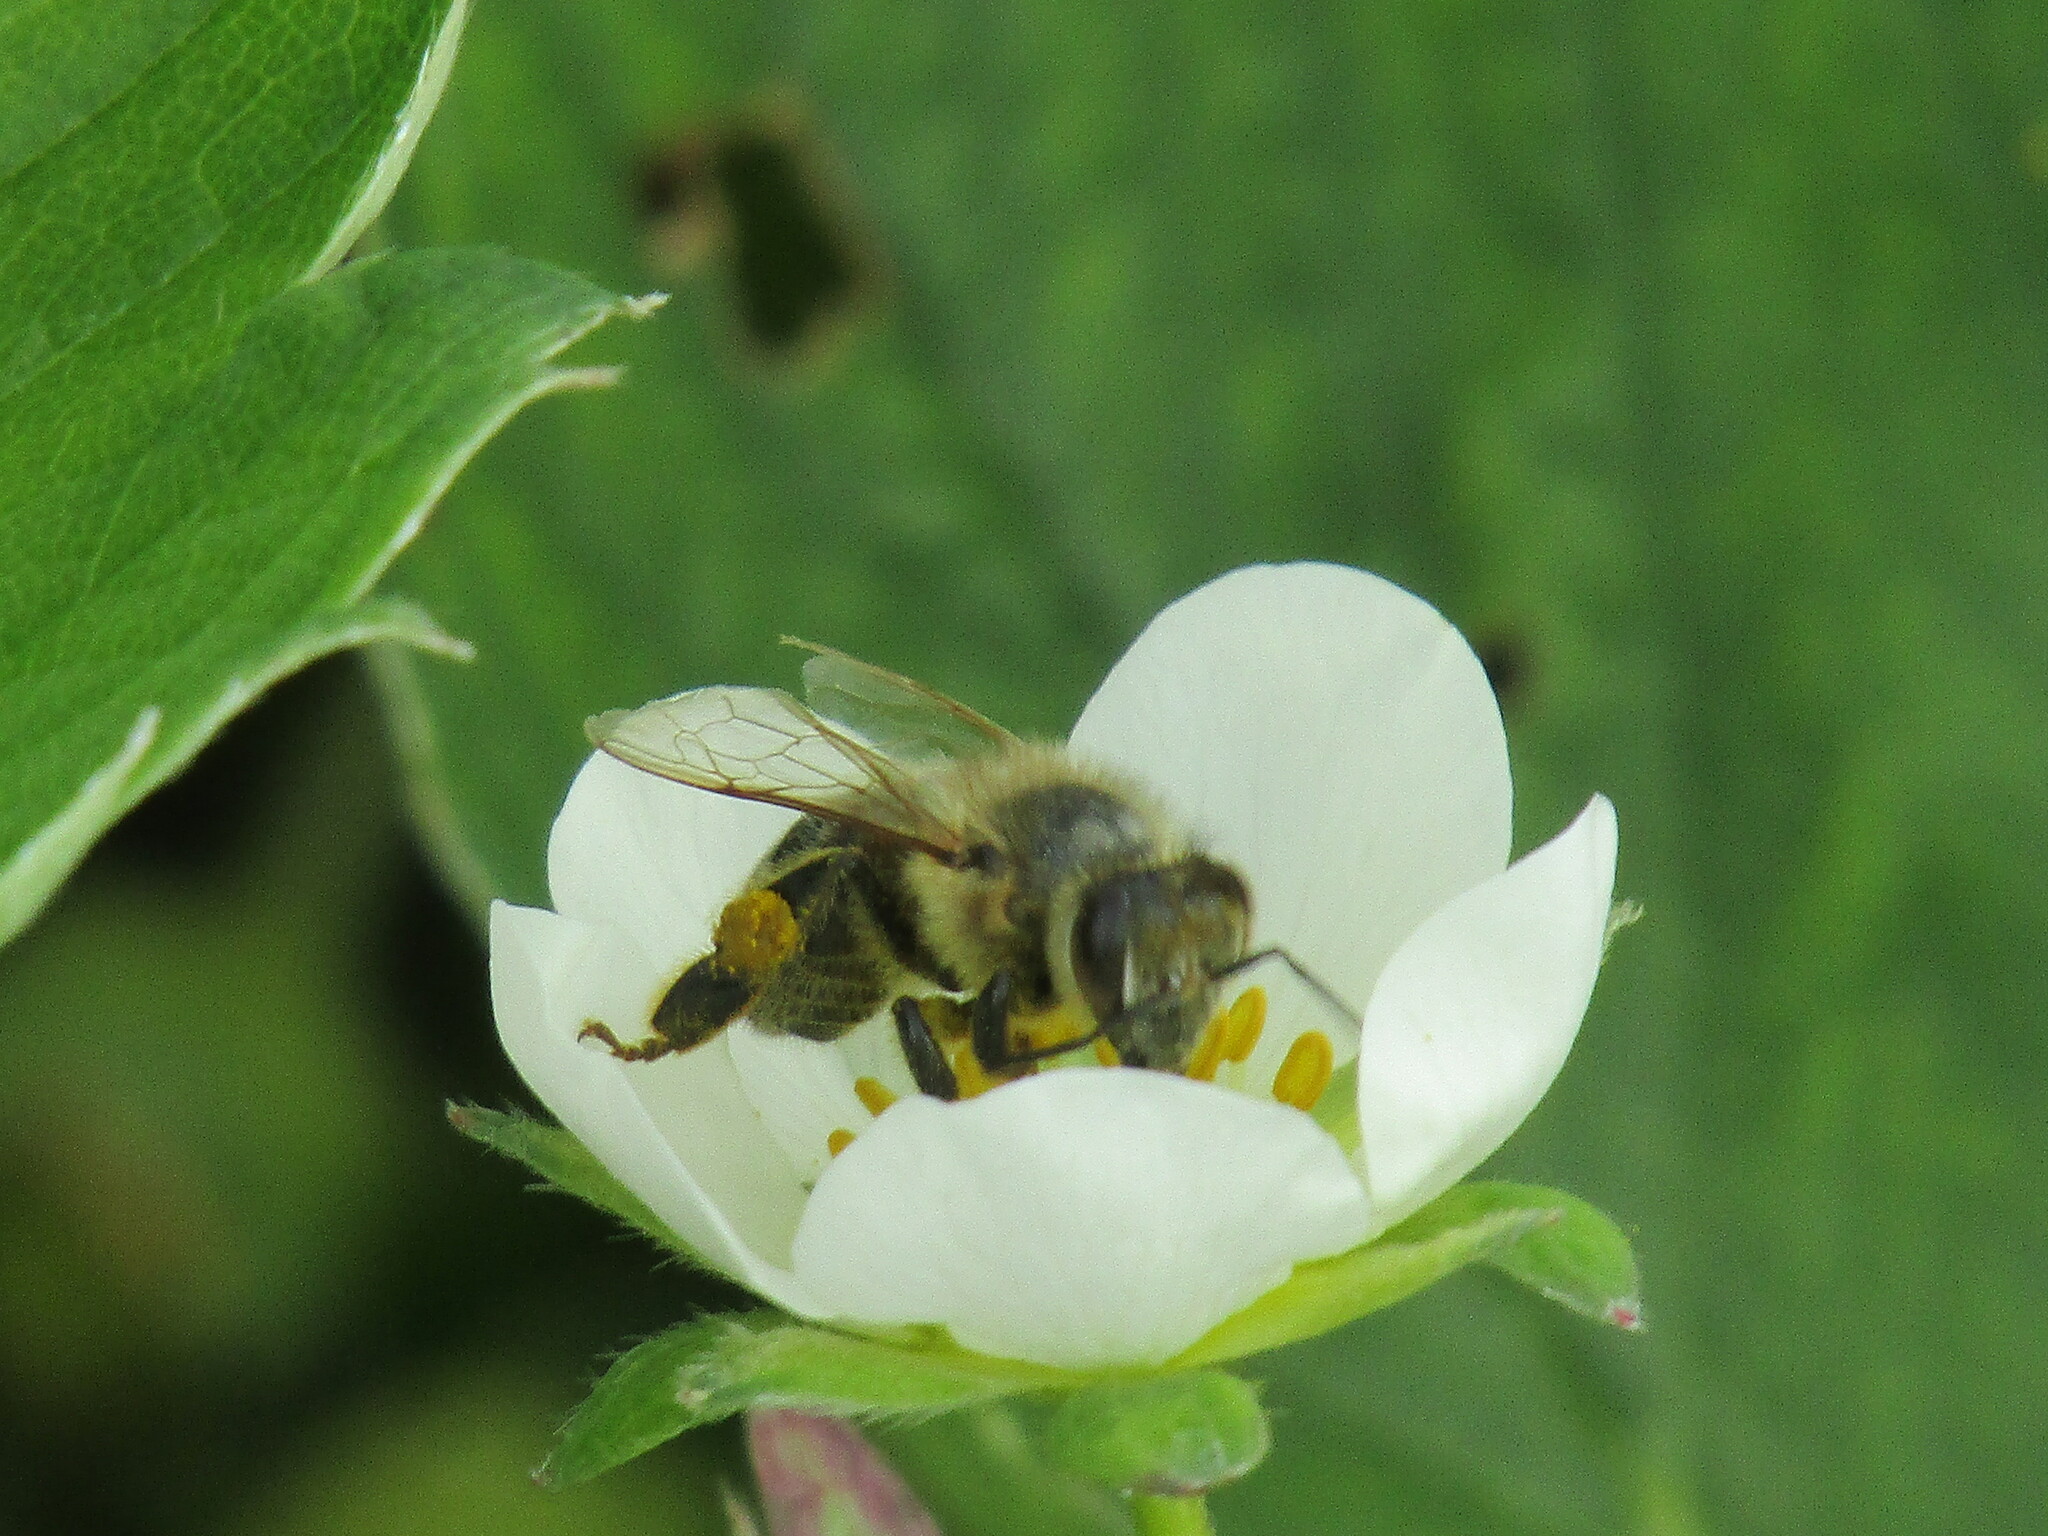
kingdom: Animalia
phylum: Arthropoda
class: Insecta
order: Hymenoptera
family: Apidae
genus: Apis
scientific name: Apis mellifera
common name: Honey bee
